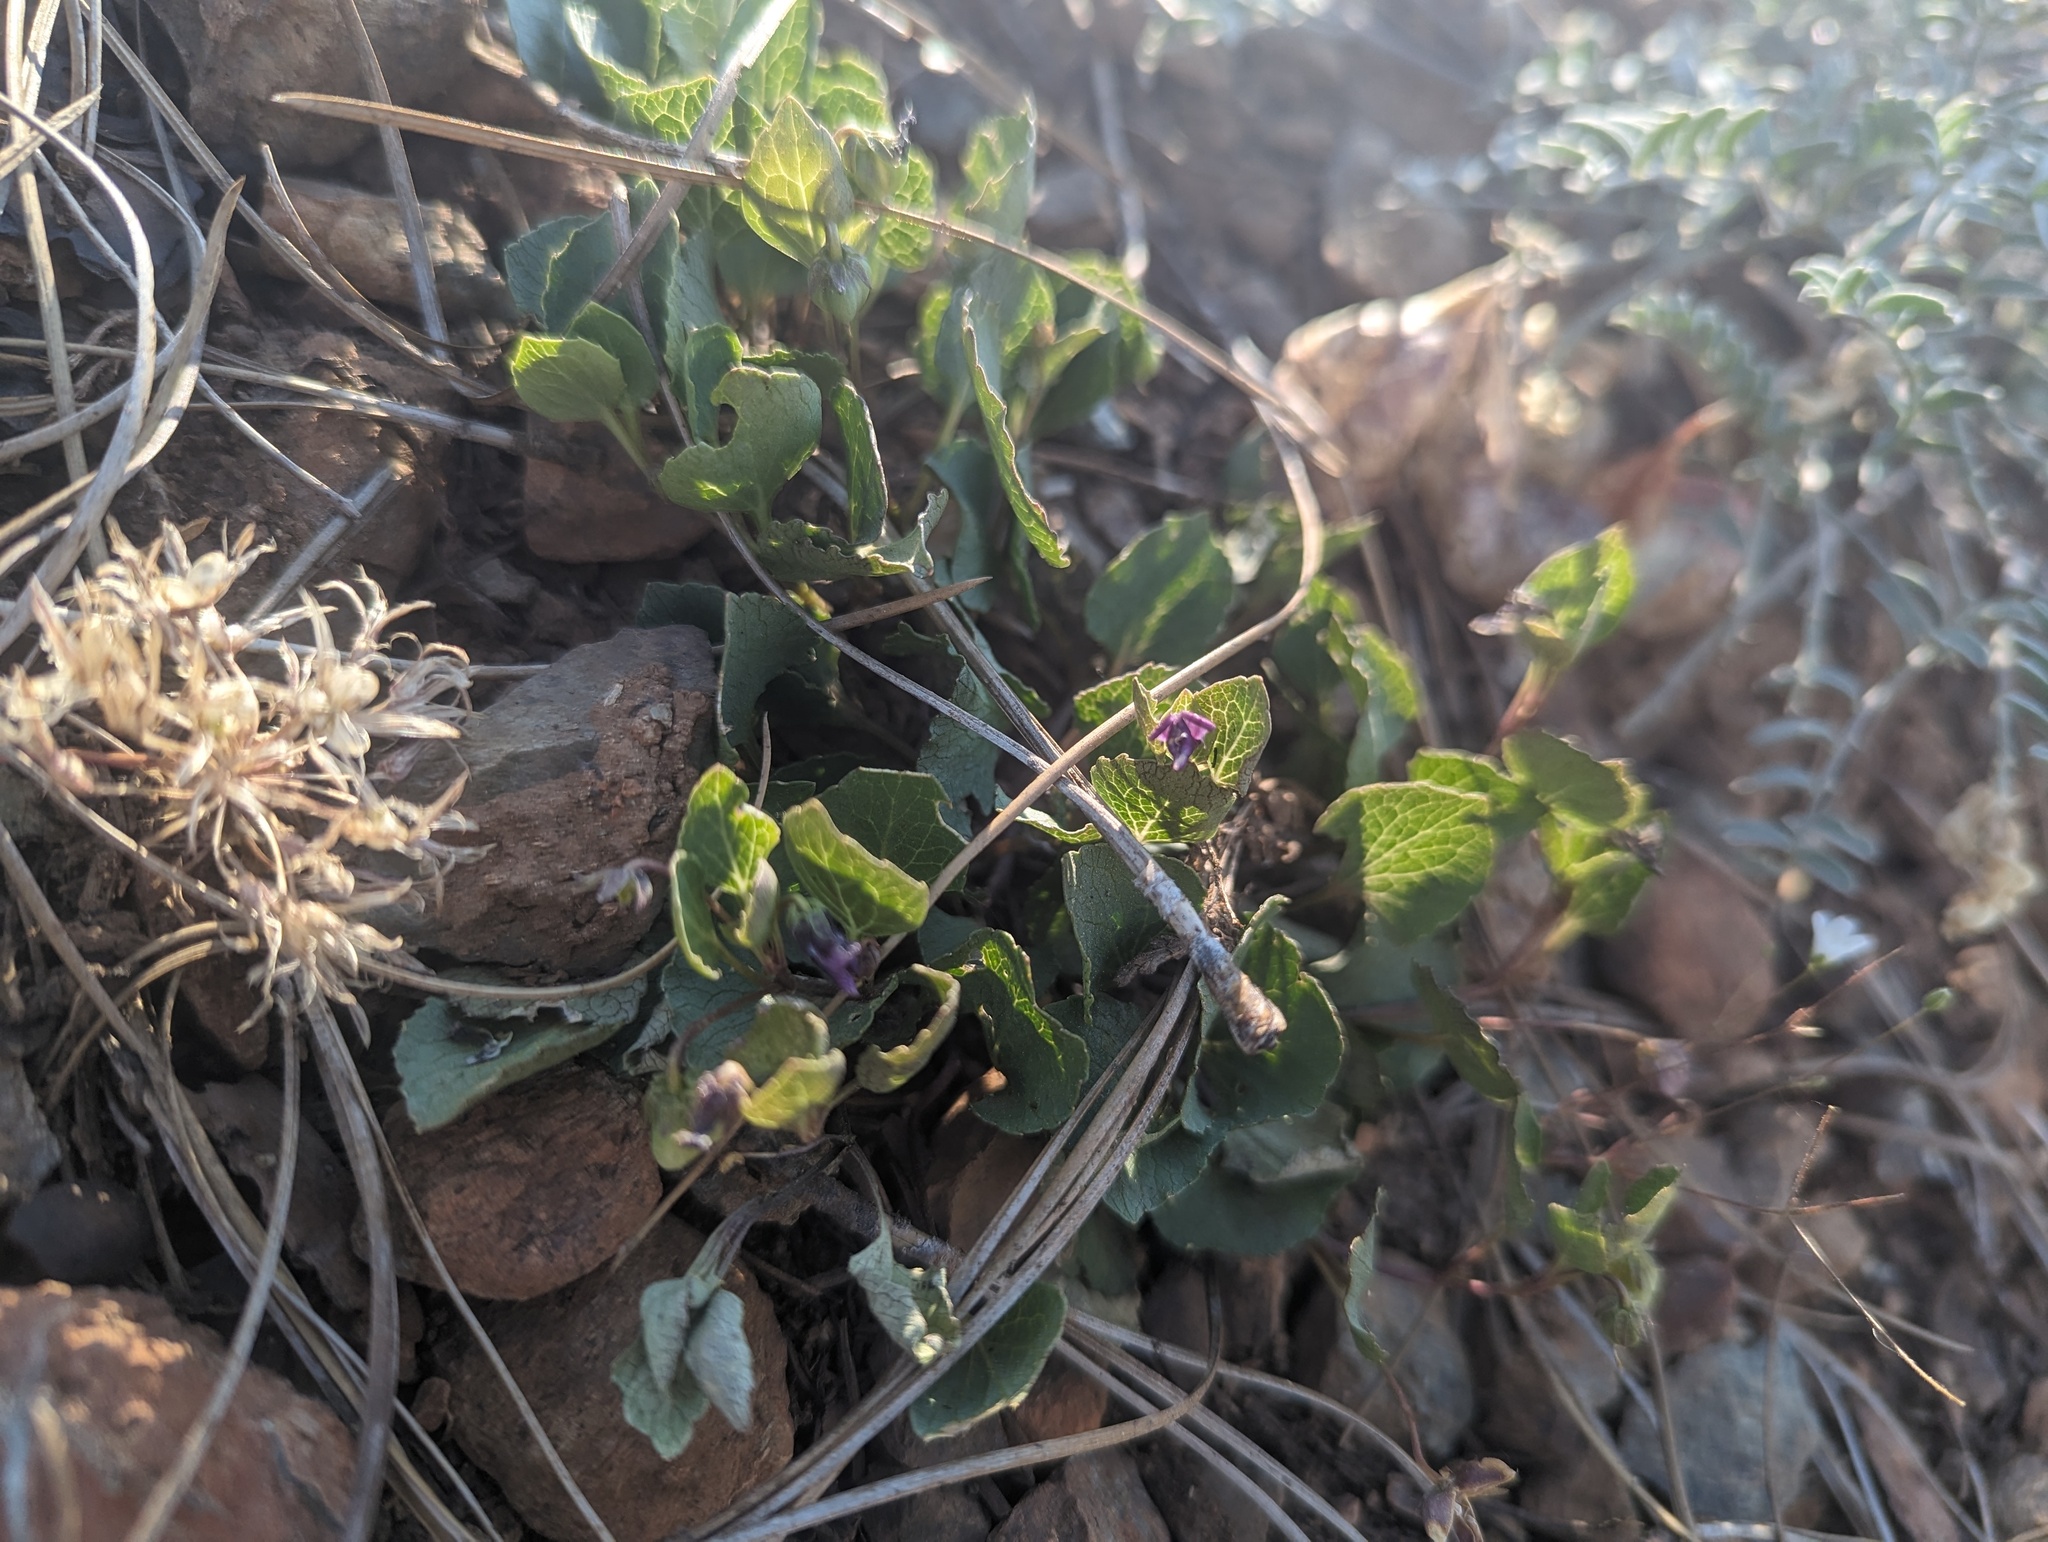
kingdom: Plantae
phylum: Tracheophyta
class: Magnoliopsida
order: Malpighiales
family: Violaceae
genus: Viola
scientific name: Viola cuneata
